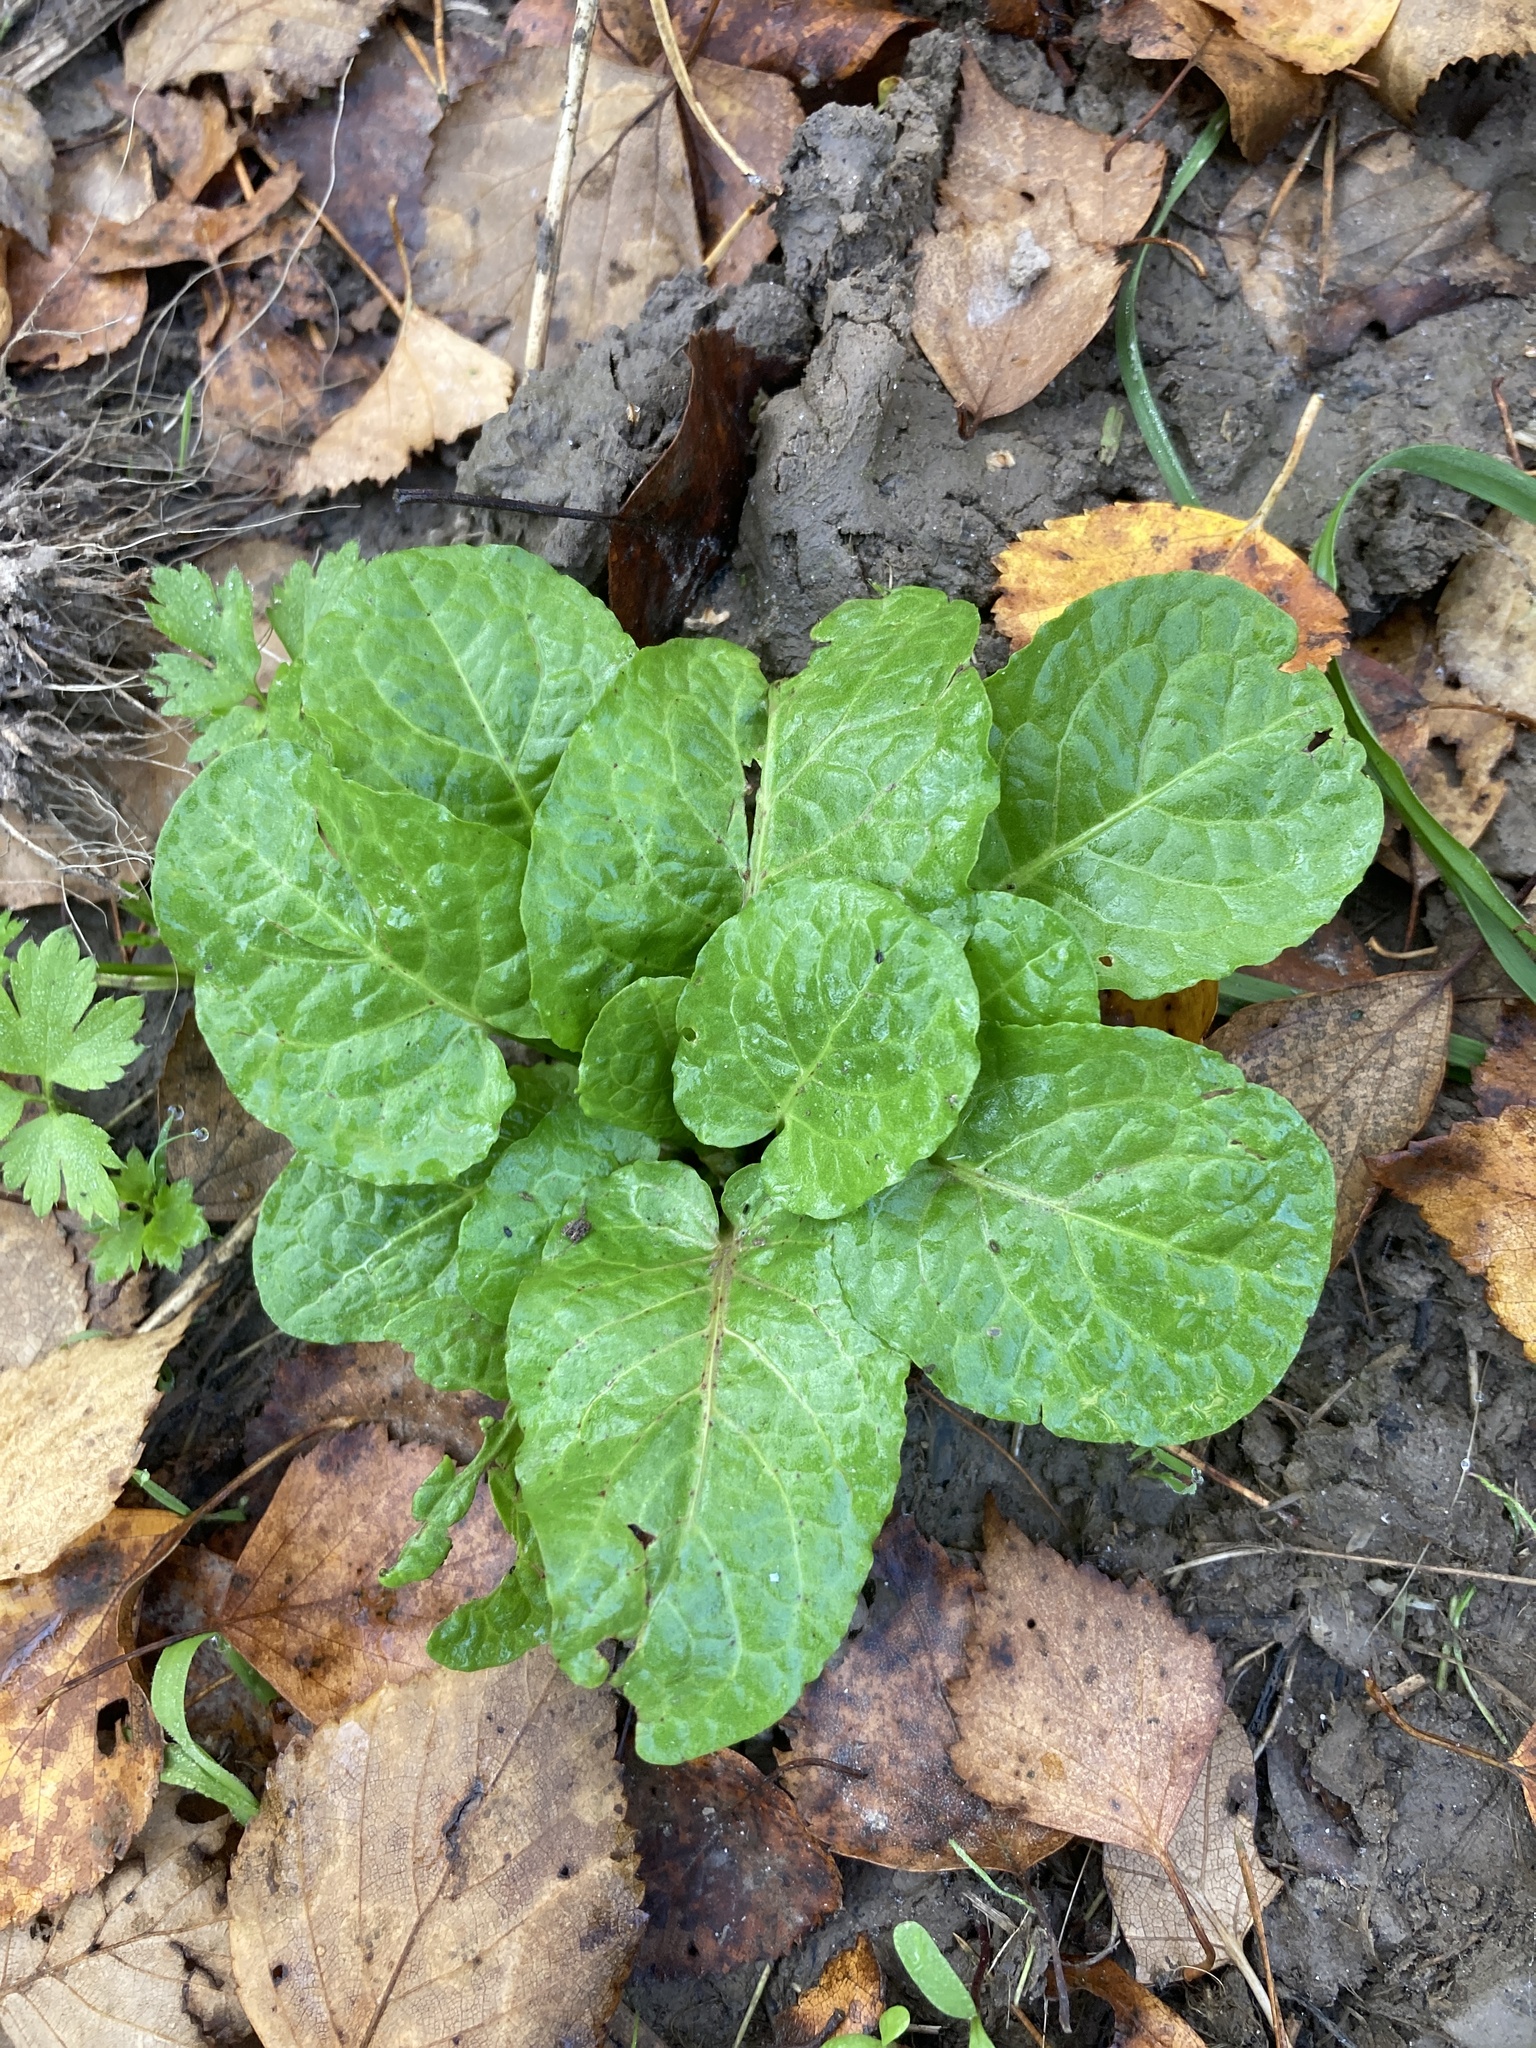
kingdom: Plantae
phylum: Tracheophyta
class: Magnoliopsida
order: Caryophyllales
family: Polygonaceae
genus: Rumex
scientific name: Rumex obtusifolius
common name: Bitter dock
